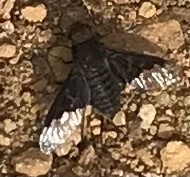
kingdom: Animalia
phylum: Arthropoda
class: Insecta
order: Diptera
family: Bombyliidae
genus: Hemipenthes
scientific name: Hemipenthes morio
